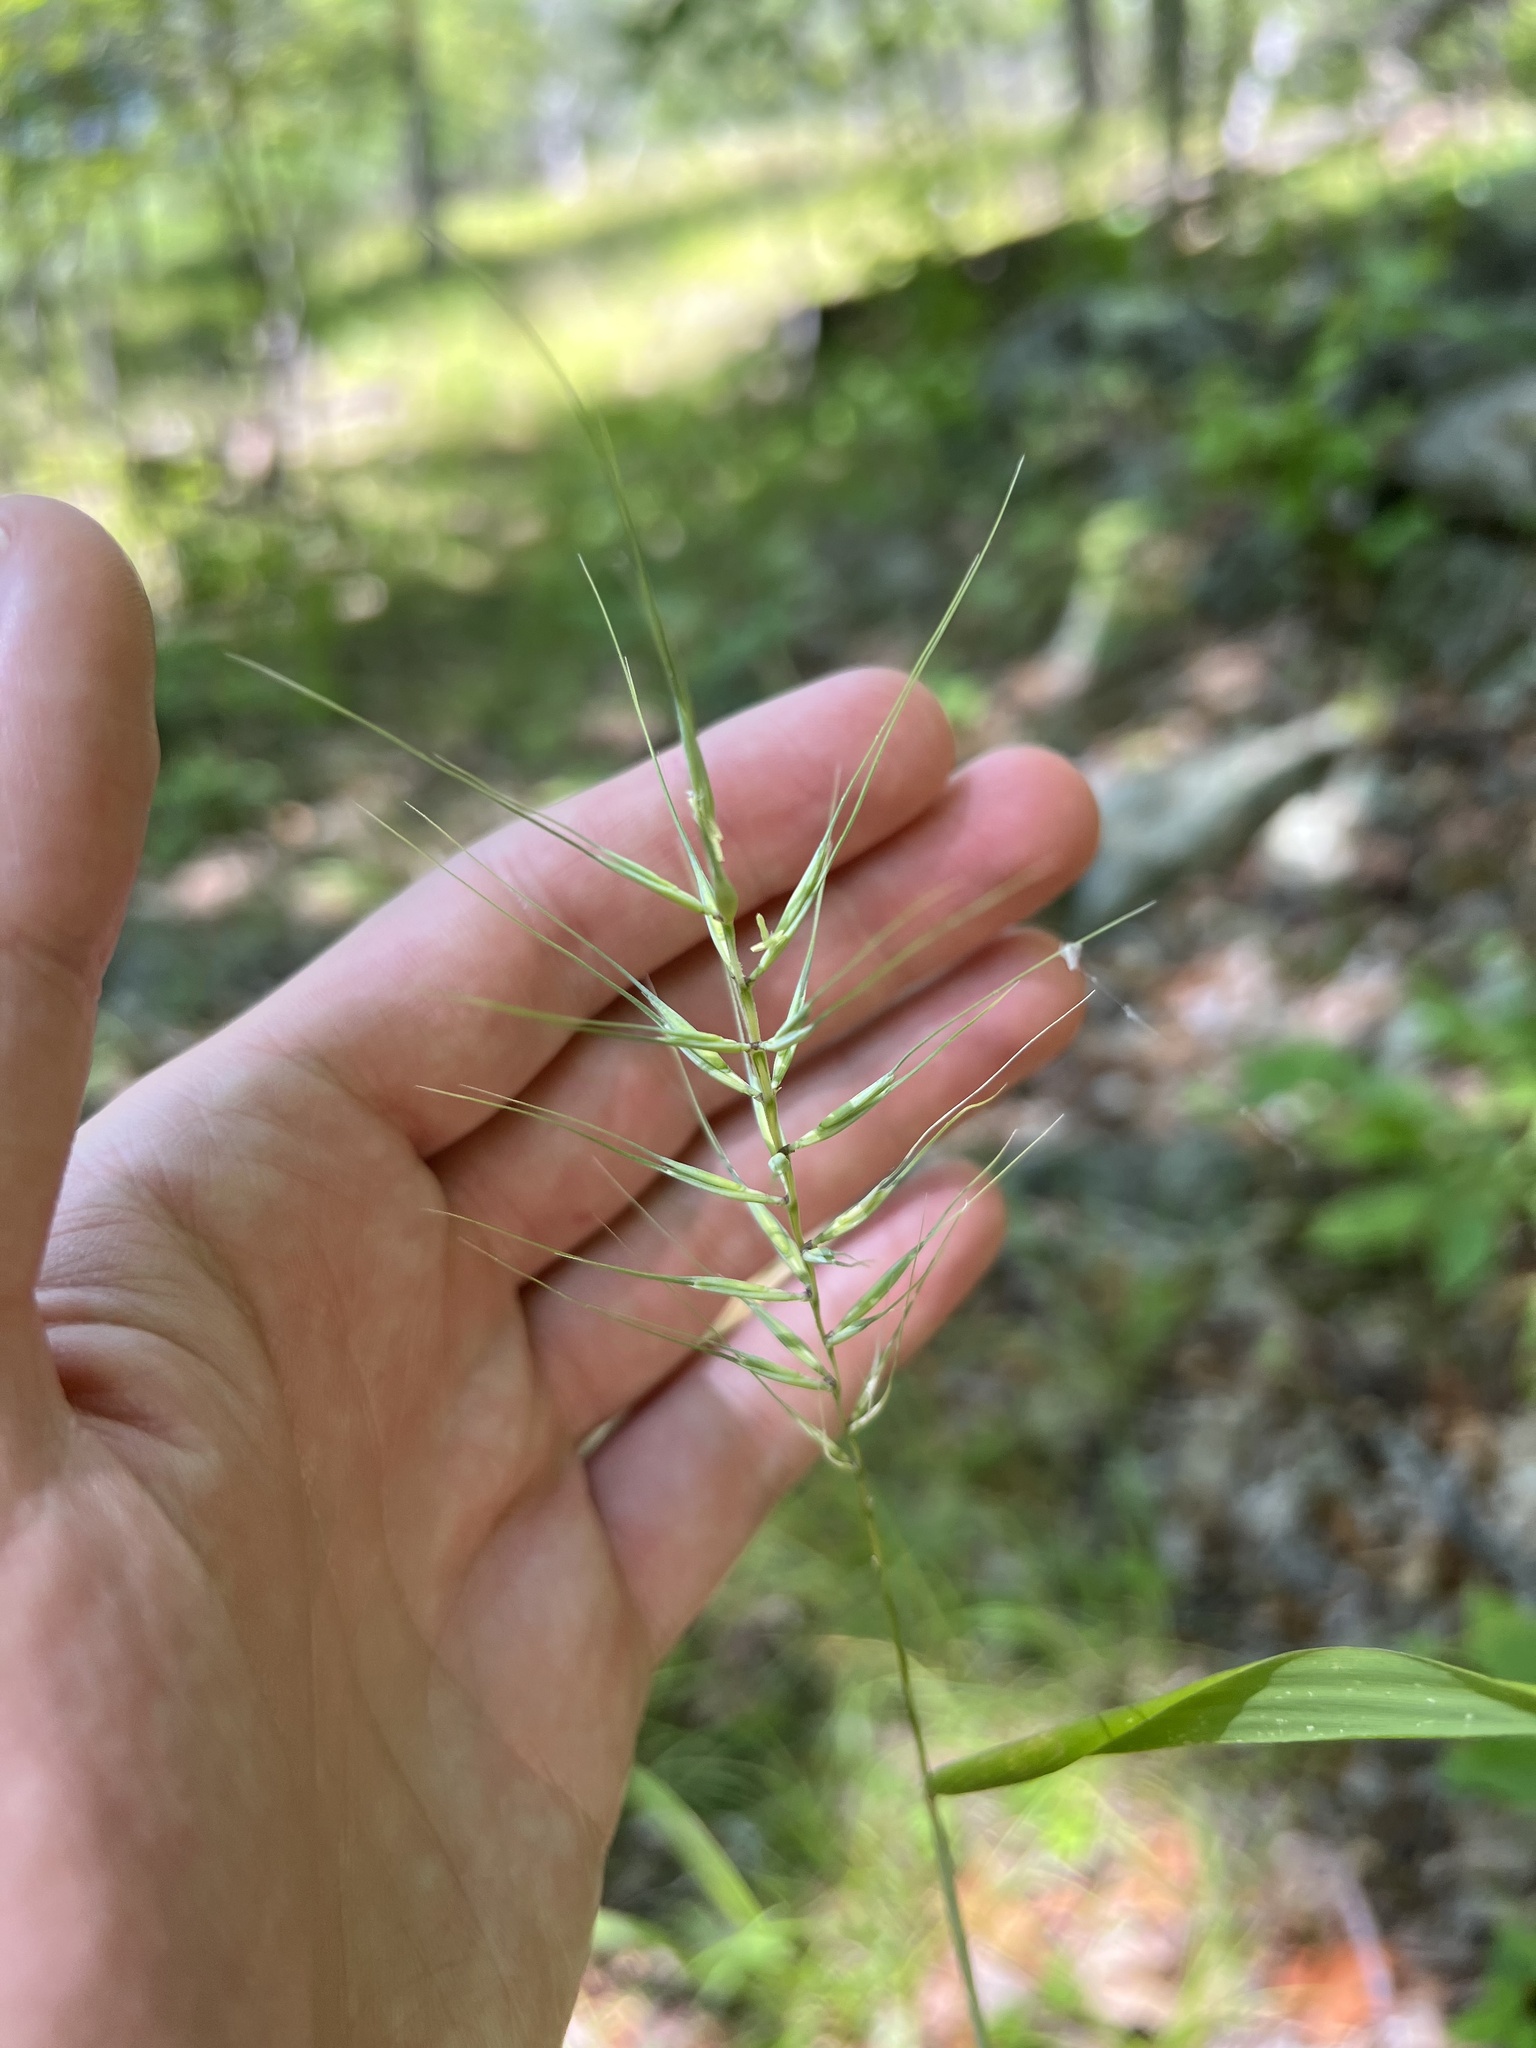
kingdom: Plantae
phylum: Tracheophyta
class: Liliopsida
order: Poales
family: Poaceae
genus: Elymus
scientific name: Elymus hystrix
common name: Bottlebrush grass
